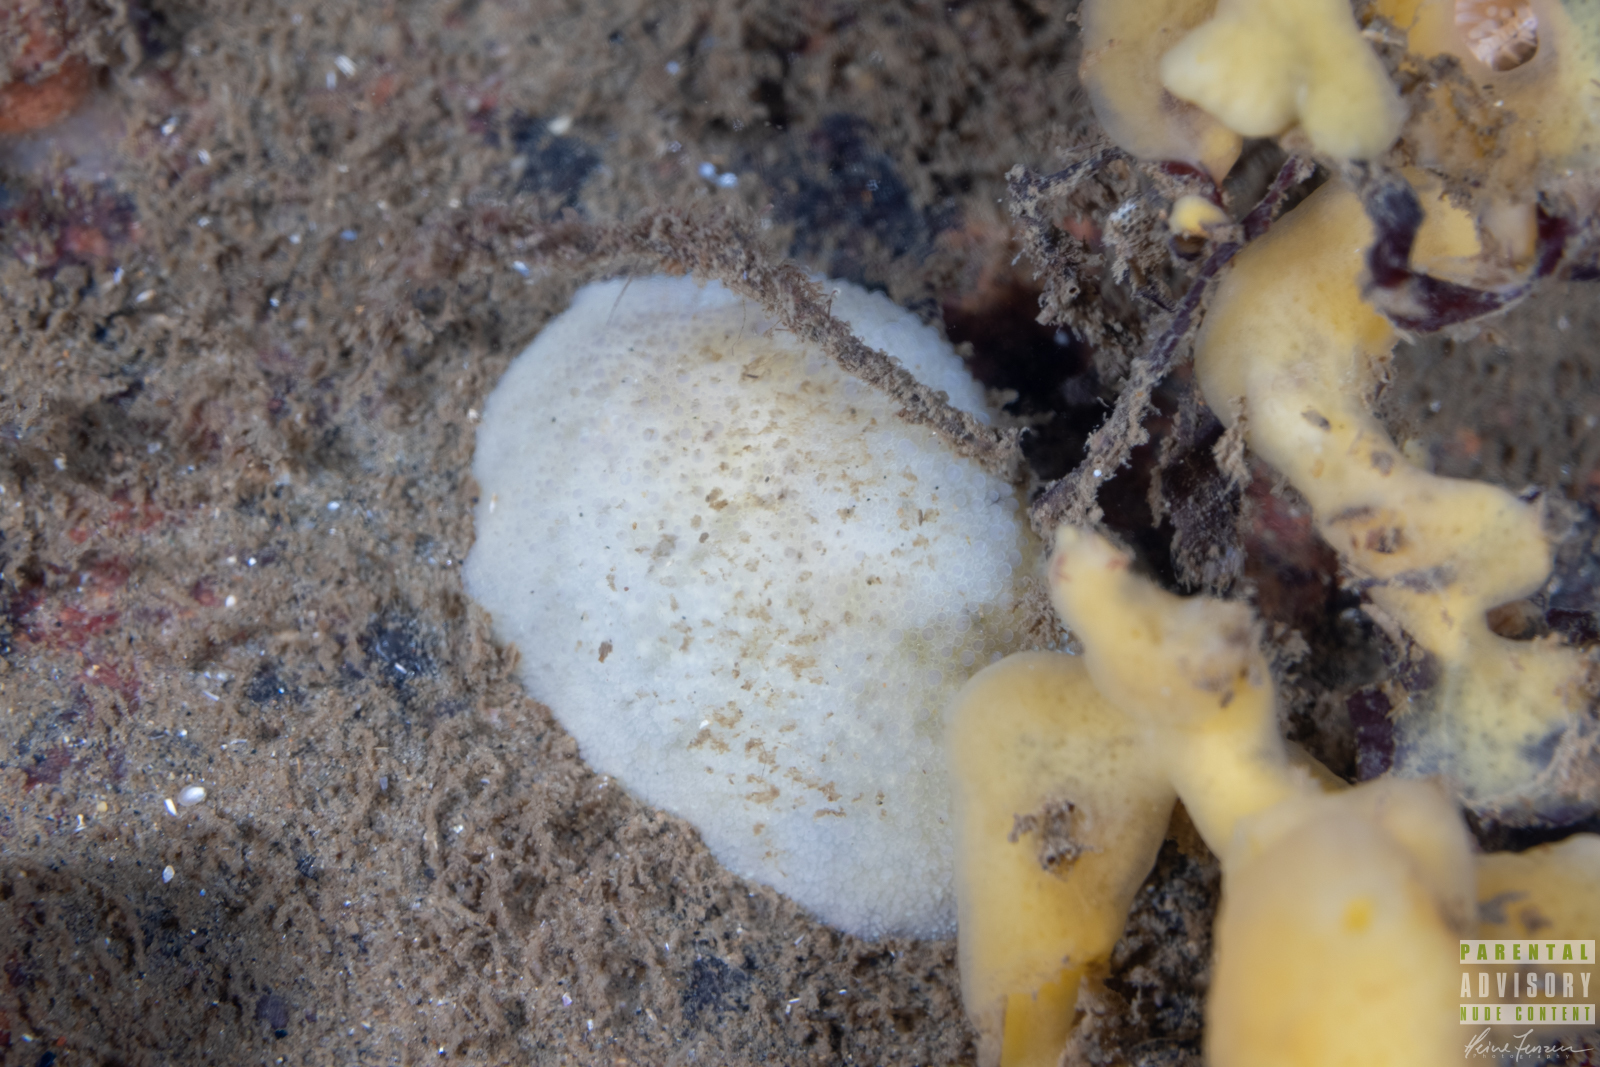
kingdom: Animalia
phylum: Mollusca
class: Gastropoda
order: Nudibranchia
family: Dorididae
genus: Doris
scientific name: Doris pseudoargus
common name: Sea lemon
